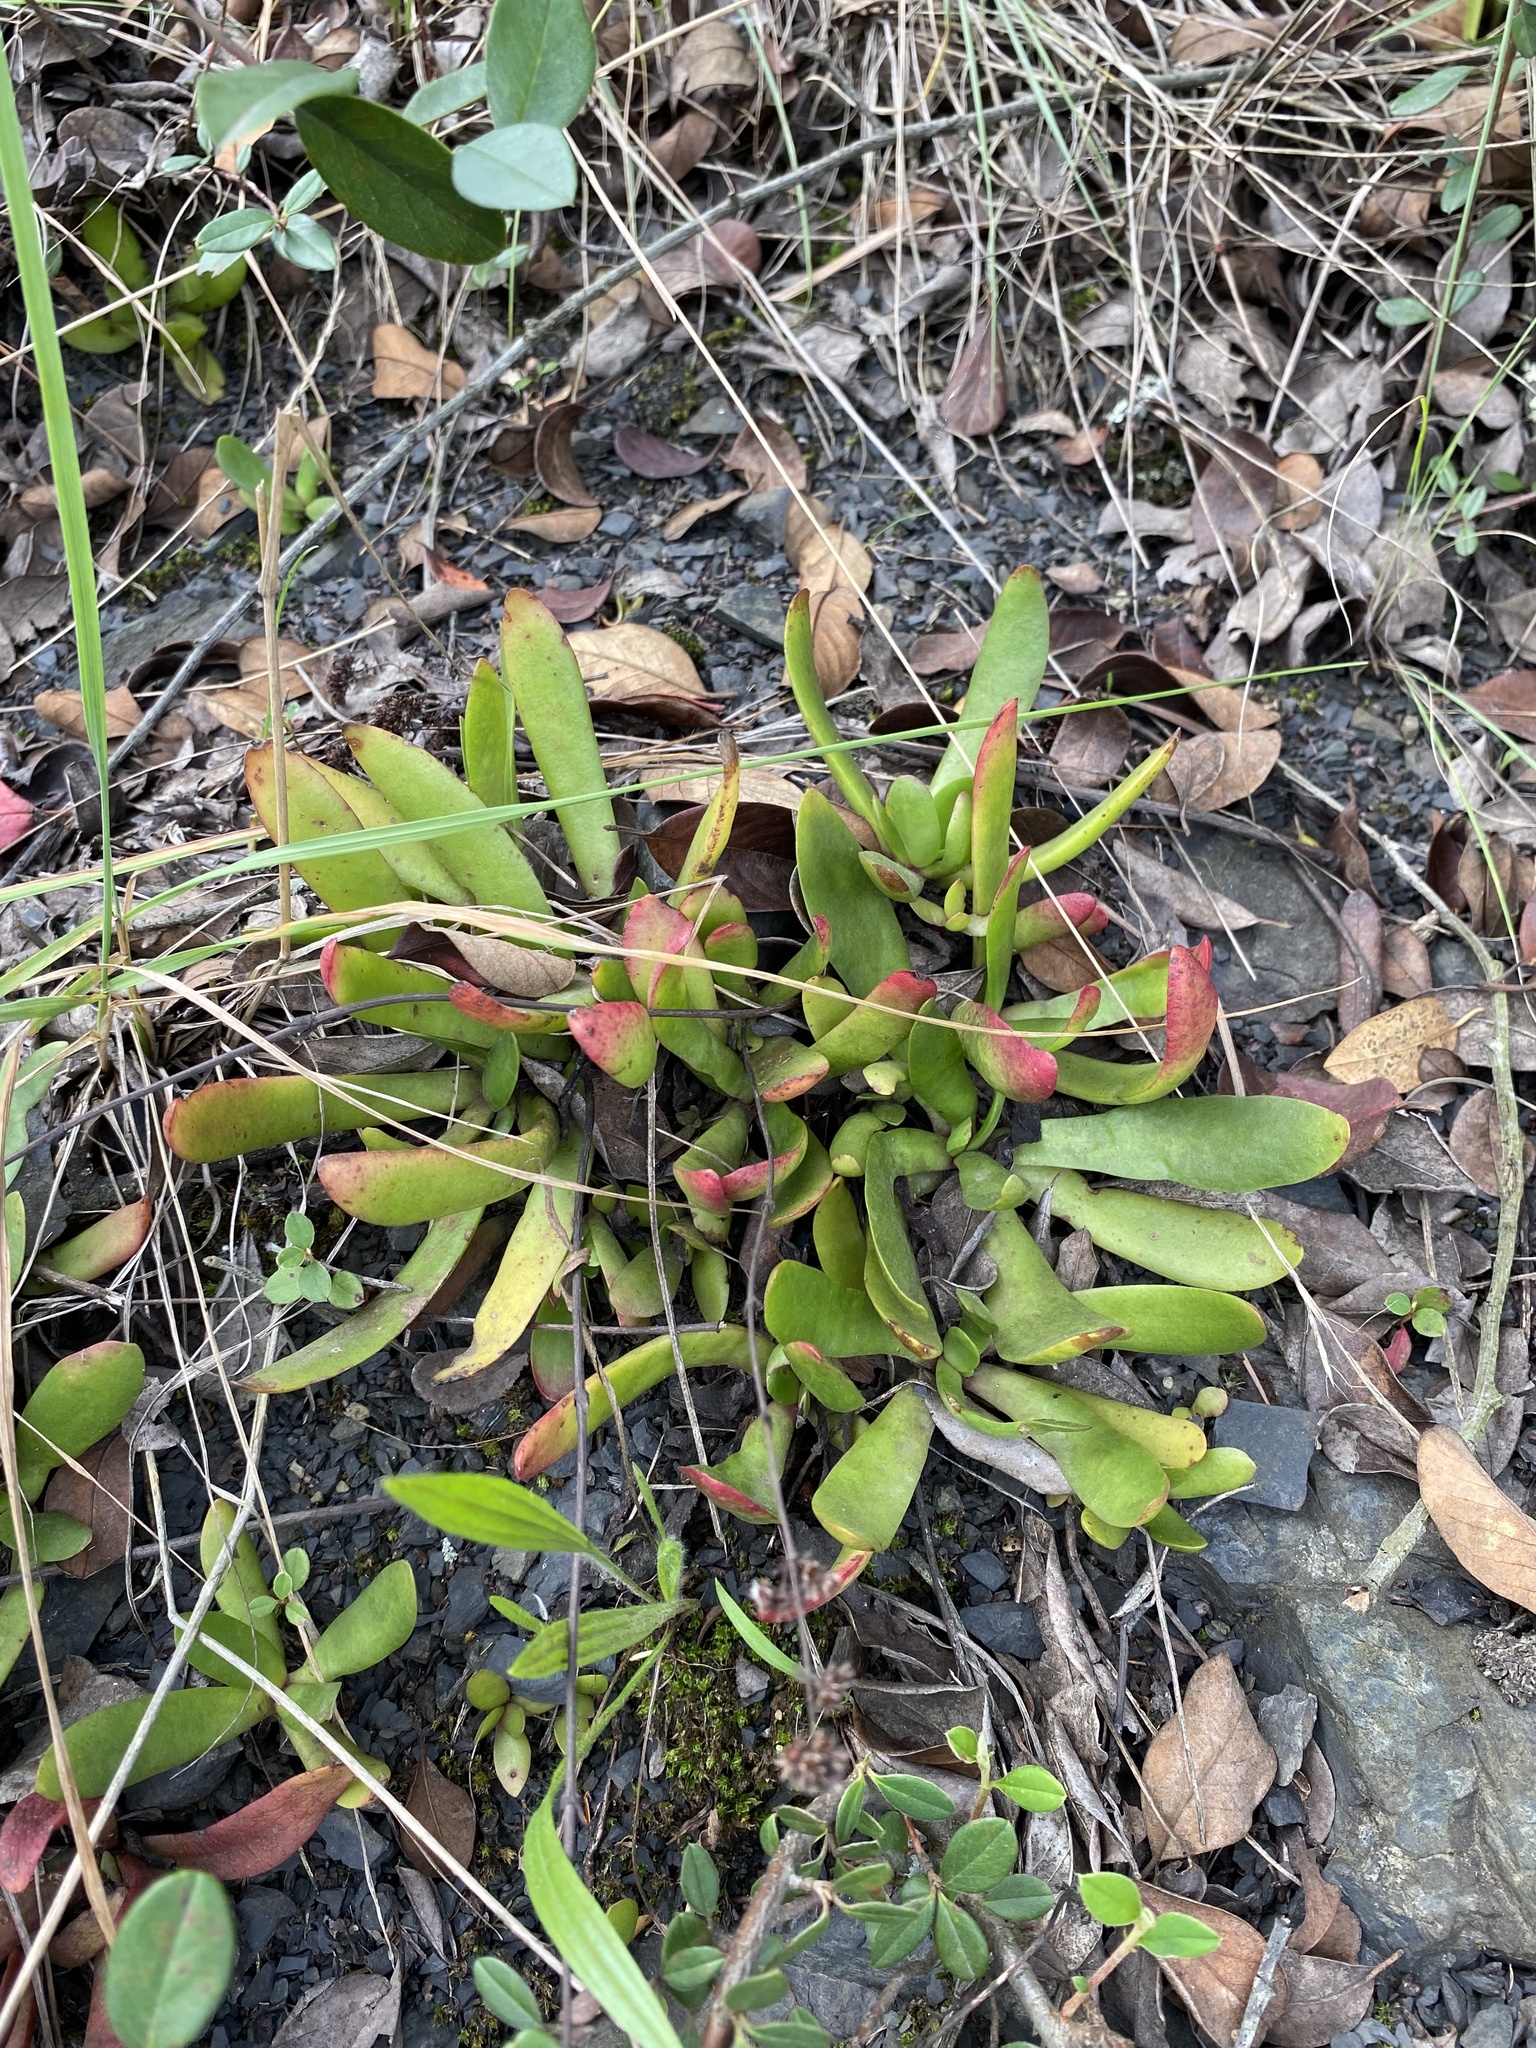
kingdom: Plantae
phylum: Tracheophyta
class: Magnoliopsida
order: Saxifragales
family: Crassulaceae
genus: Crassula
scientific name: Crassula nudicaulis
